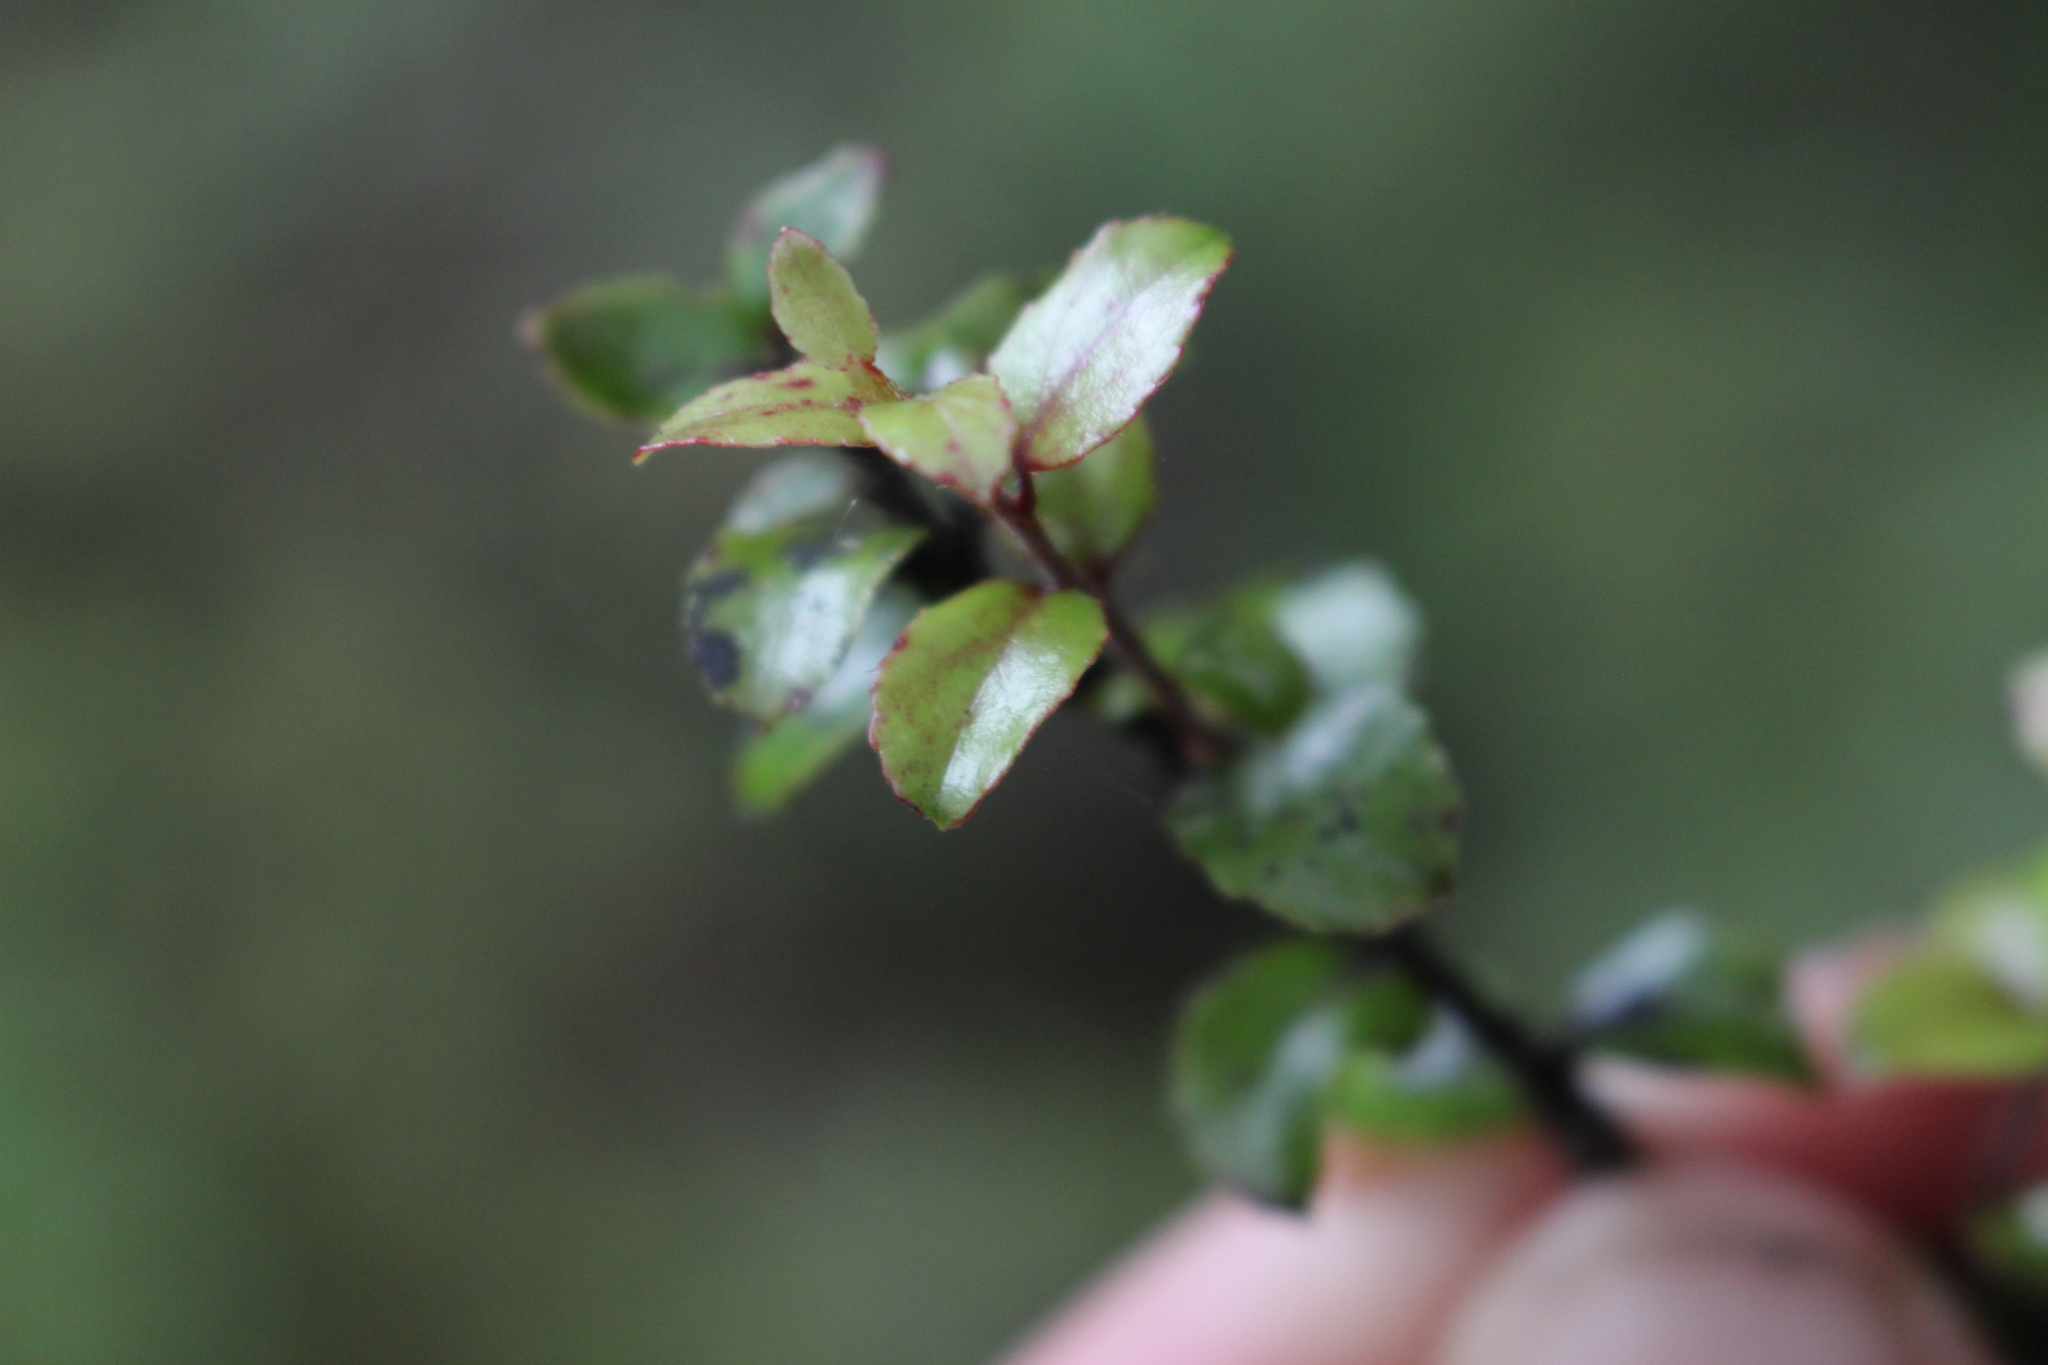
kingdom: Plantae
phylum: Tracheophyta
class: Magnoliopsida
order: Ericales
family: Ericaceae
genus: Gaultheria
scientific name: Gaultheria antipoda
